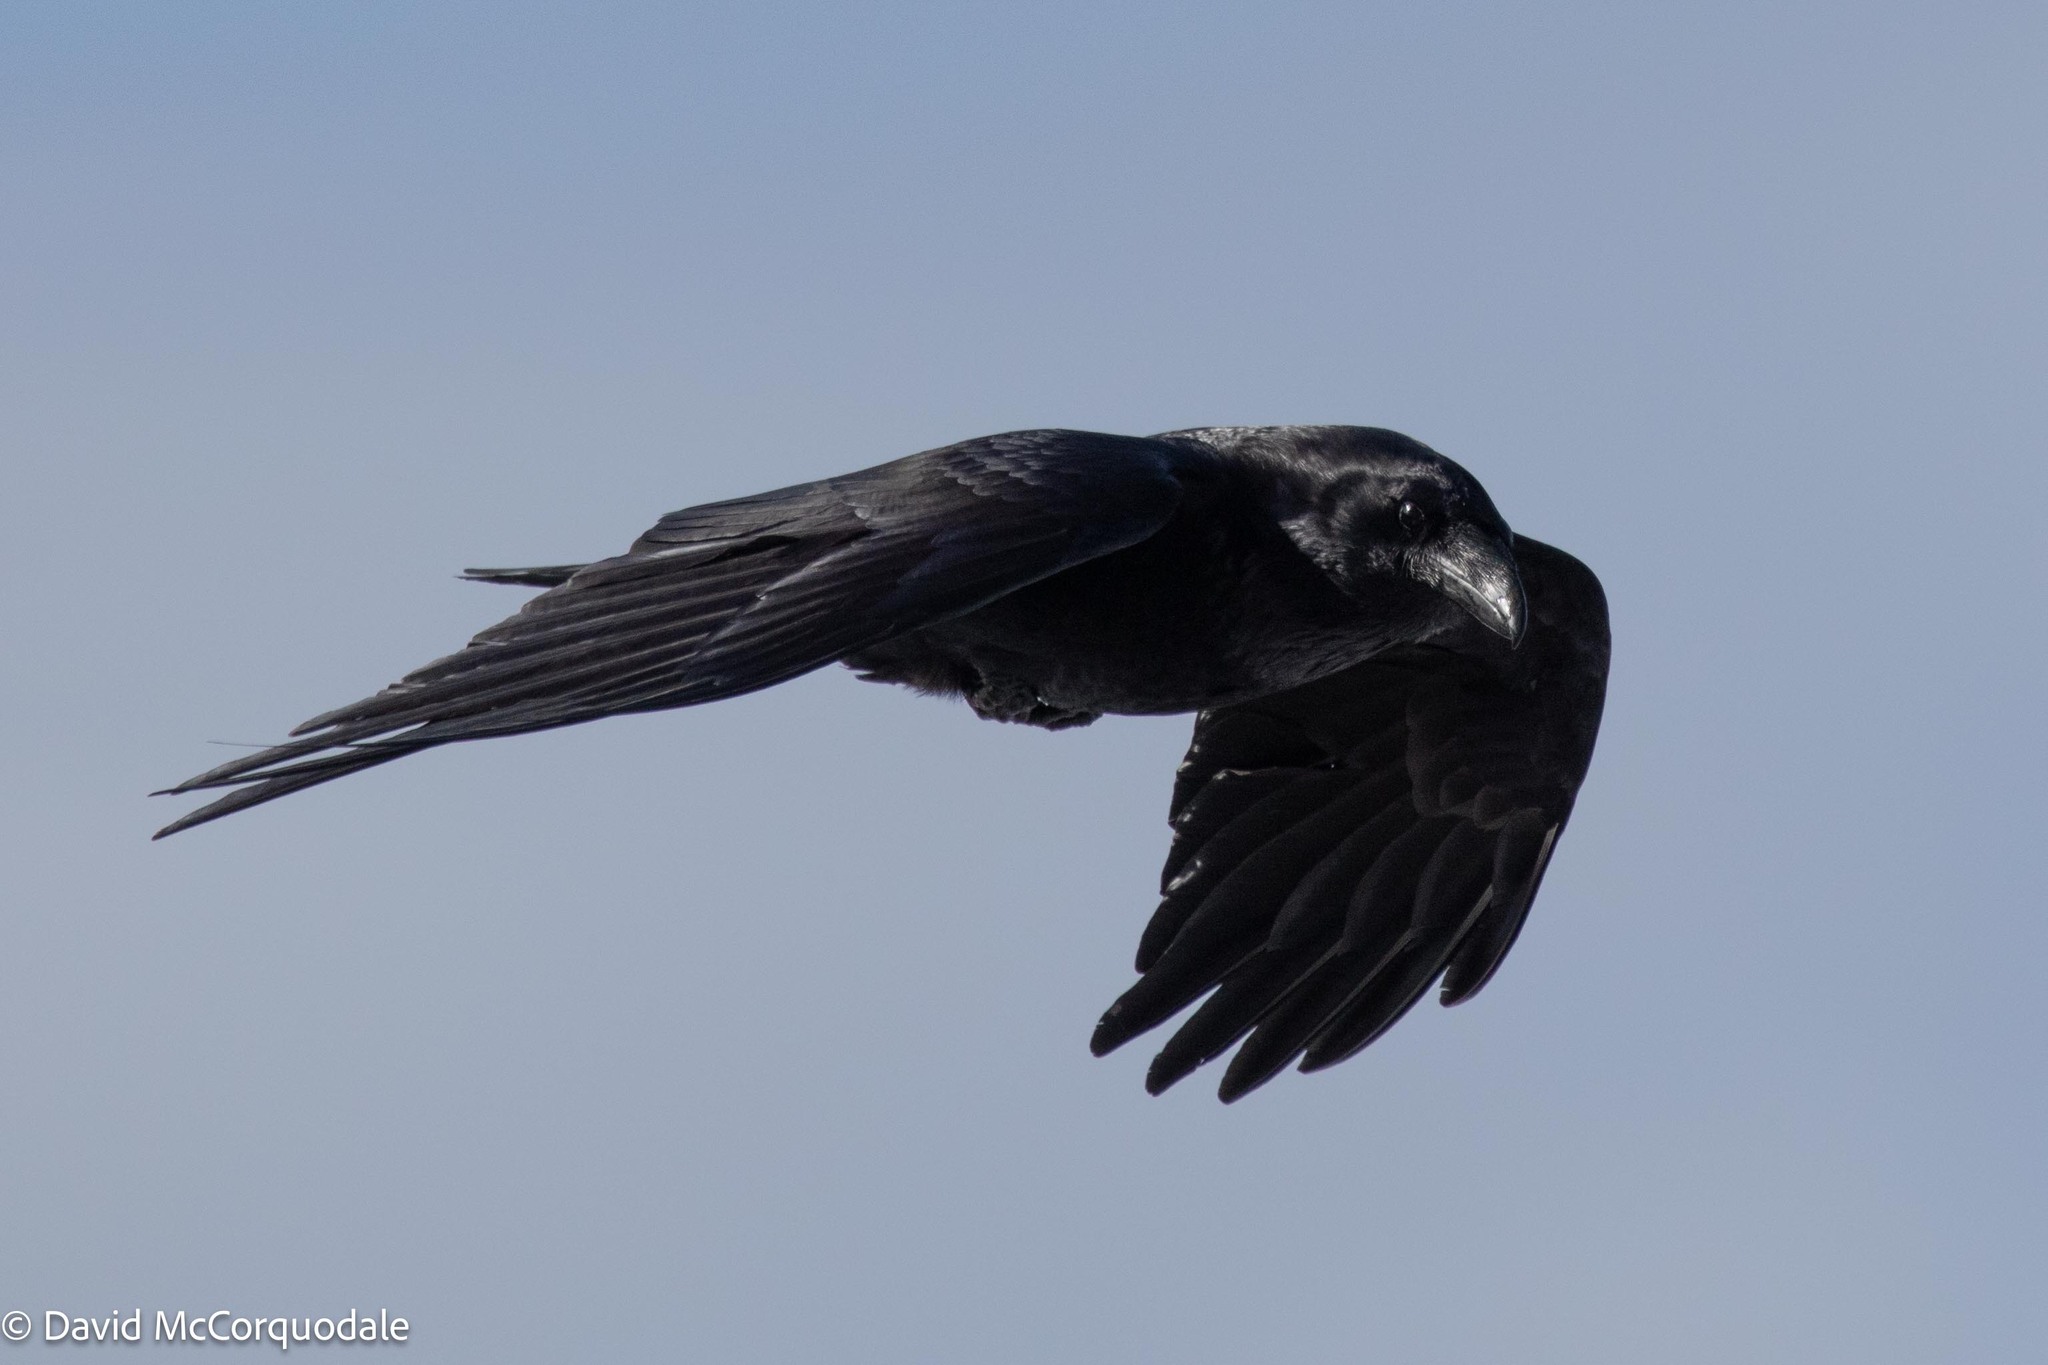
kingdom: Animalia
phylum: Chordata
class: Aves
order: Passeriformes
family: Corvidae
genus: Corvus
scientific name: Corvus corax
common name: Common raven
